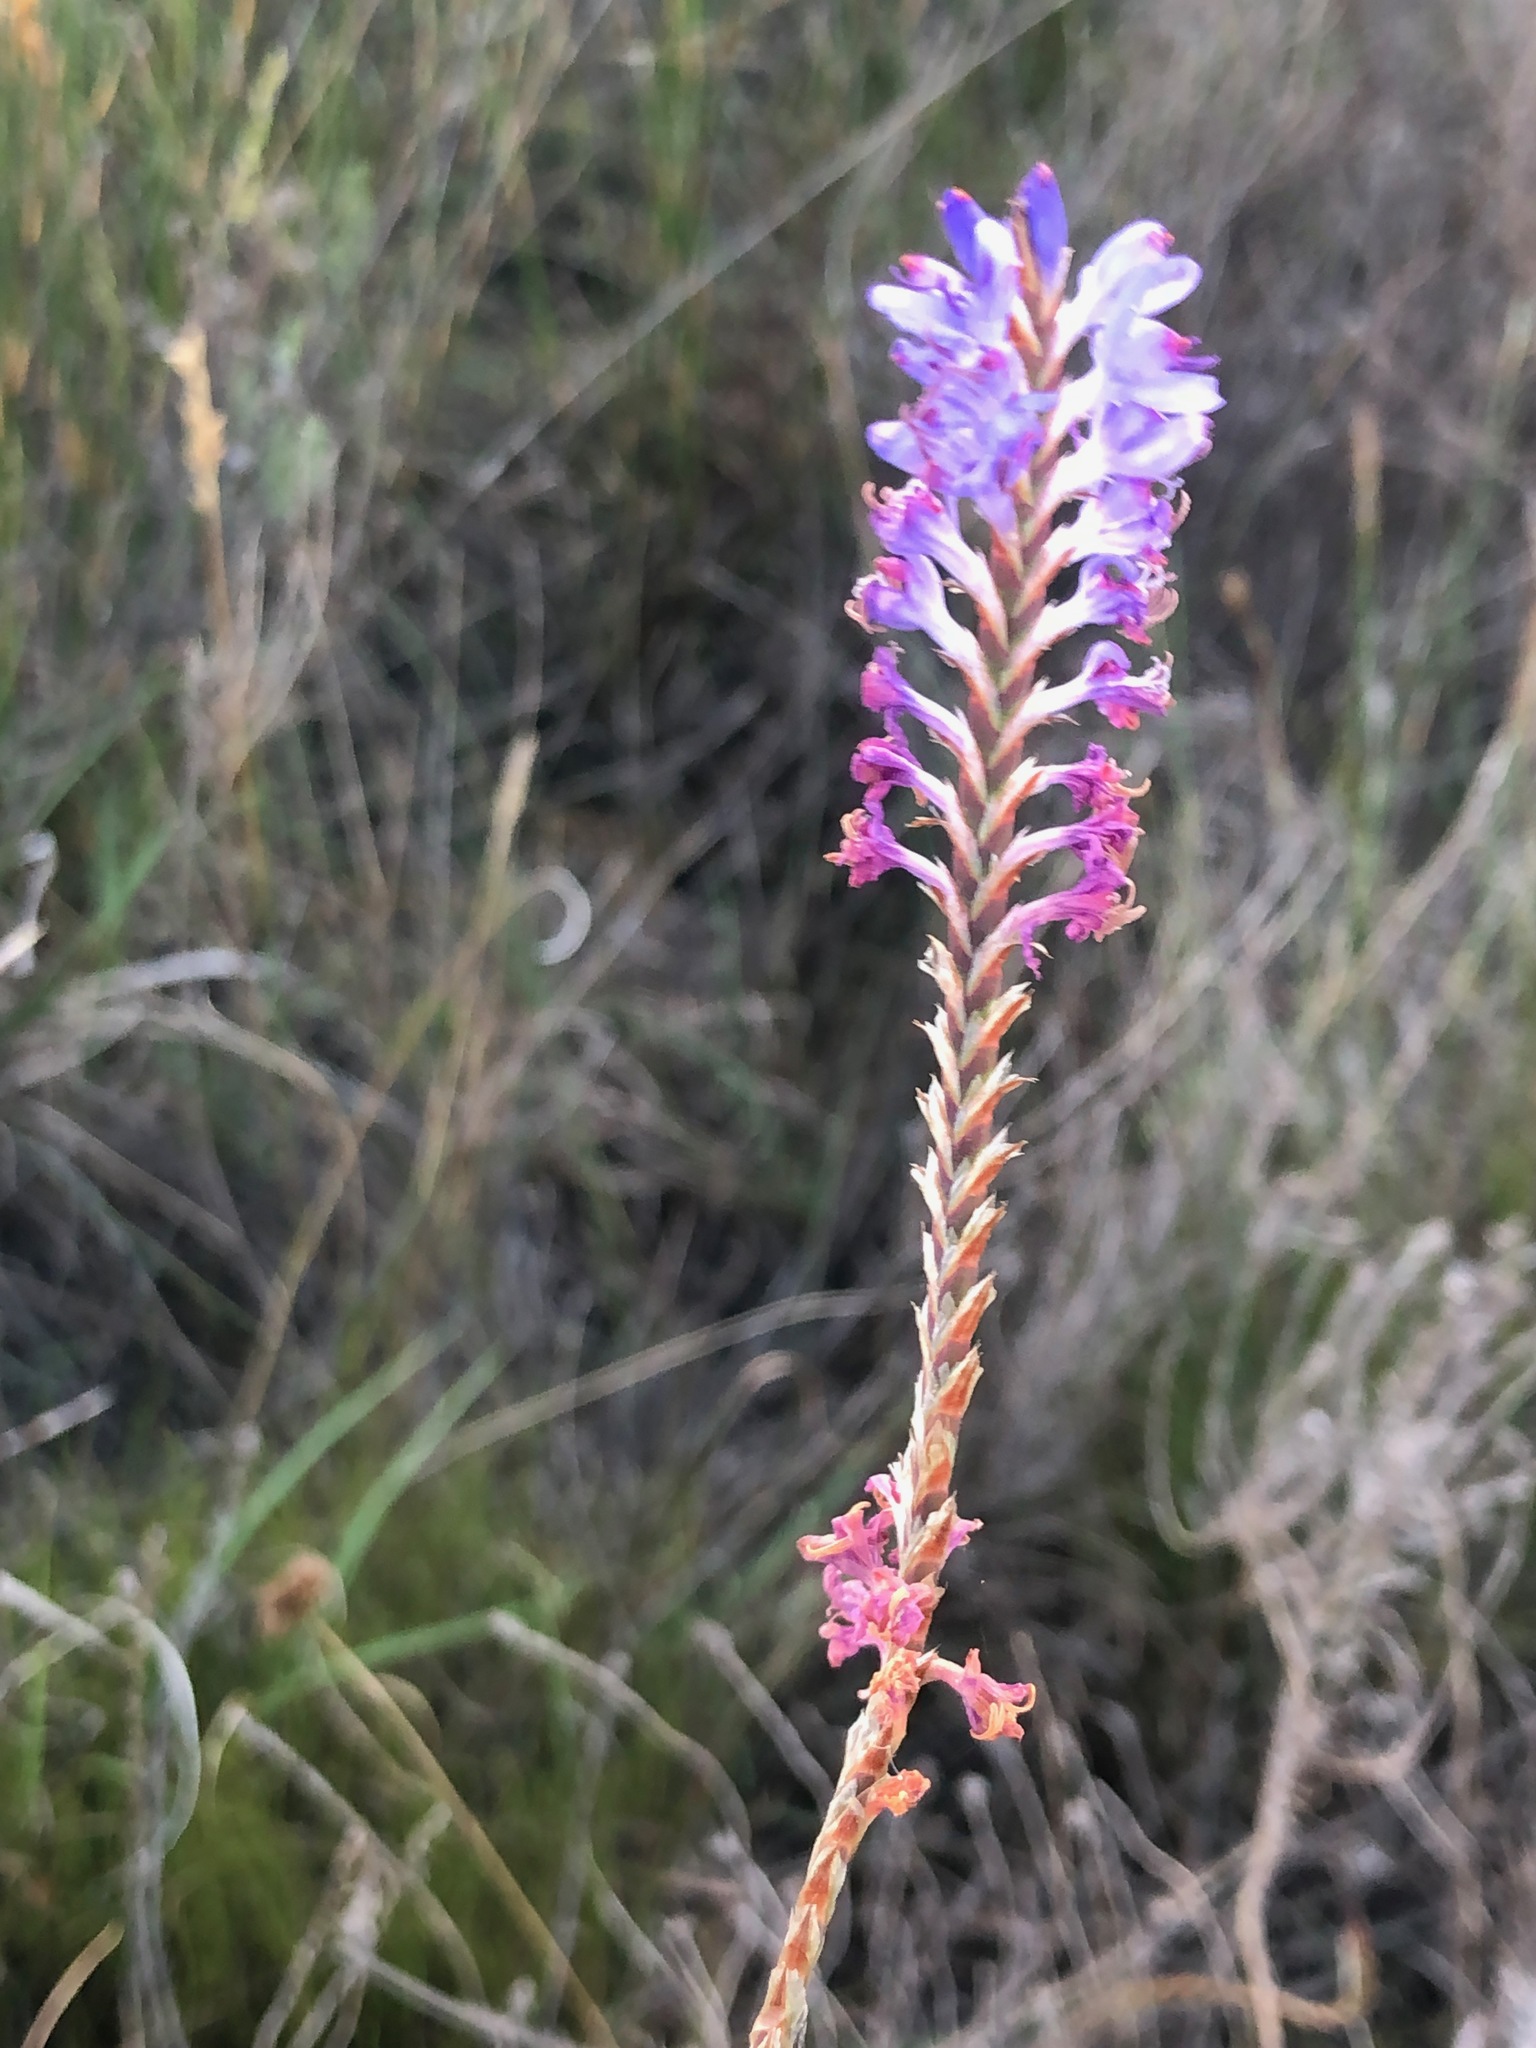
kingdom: Plantae
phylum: Tracheophyta
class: Liliopsida
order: Asparagales
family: Iridaceae
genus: Micranthus
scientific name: Micranthus alopecuroides
